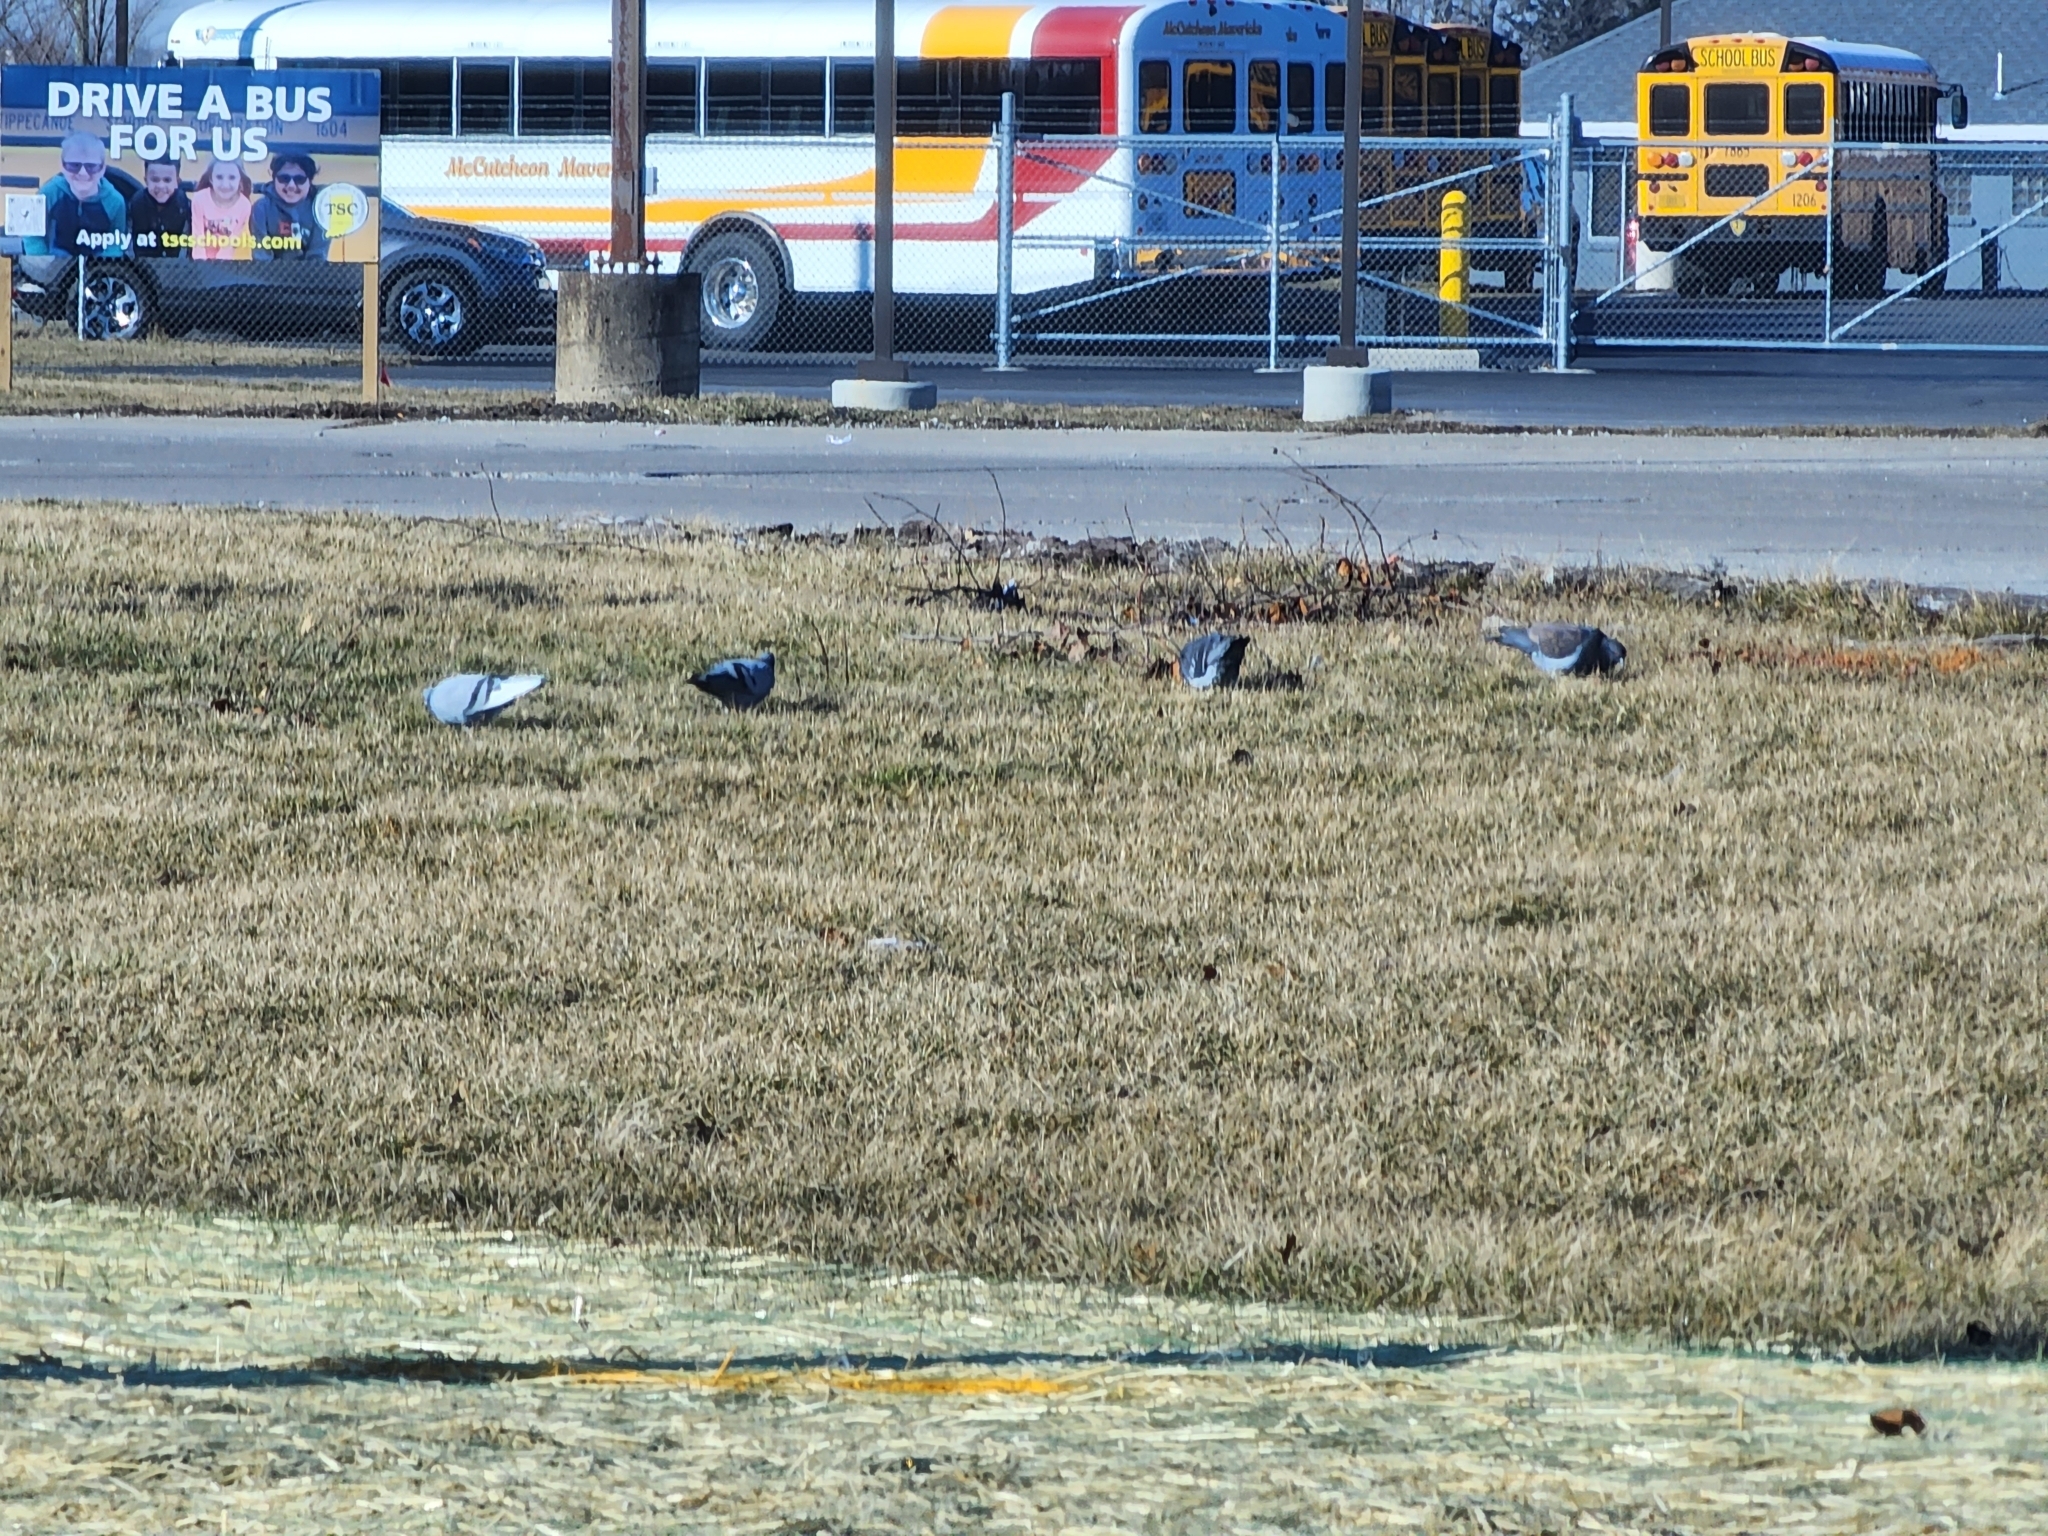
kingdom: Animalia
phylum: Chordata
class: Aves
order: Columbiformes
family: Columbidae
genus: Columba
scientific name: Columba livia
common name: Rock pigeon
